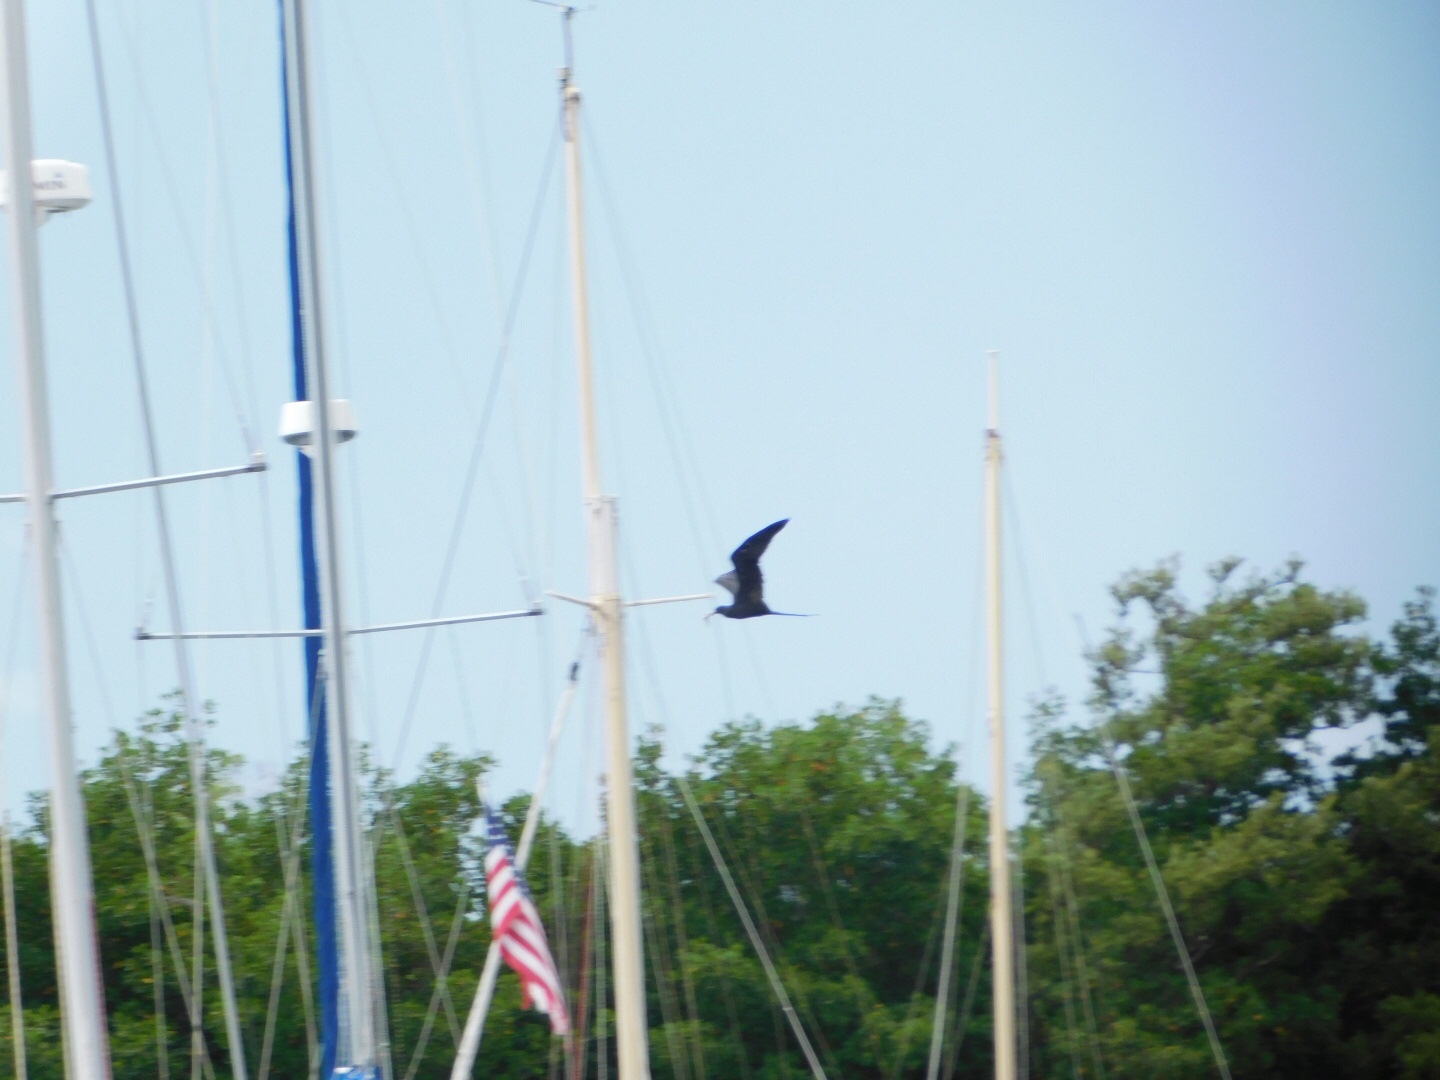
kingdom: Animalia
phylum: Chordata
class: Aves
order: Suliformes
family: Fregatidae
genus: Fregata
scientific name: Fregata magnificens
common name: Magnificent frigatebird
